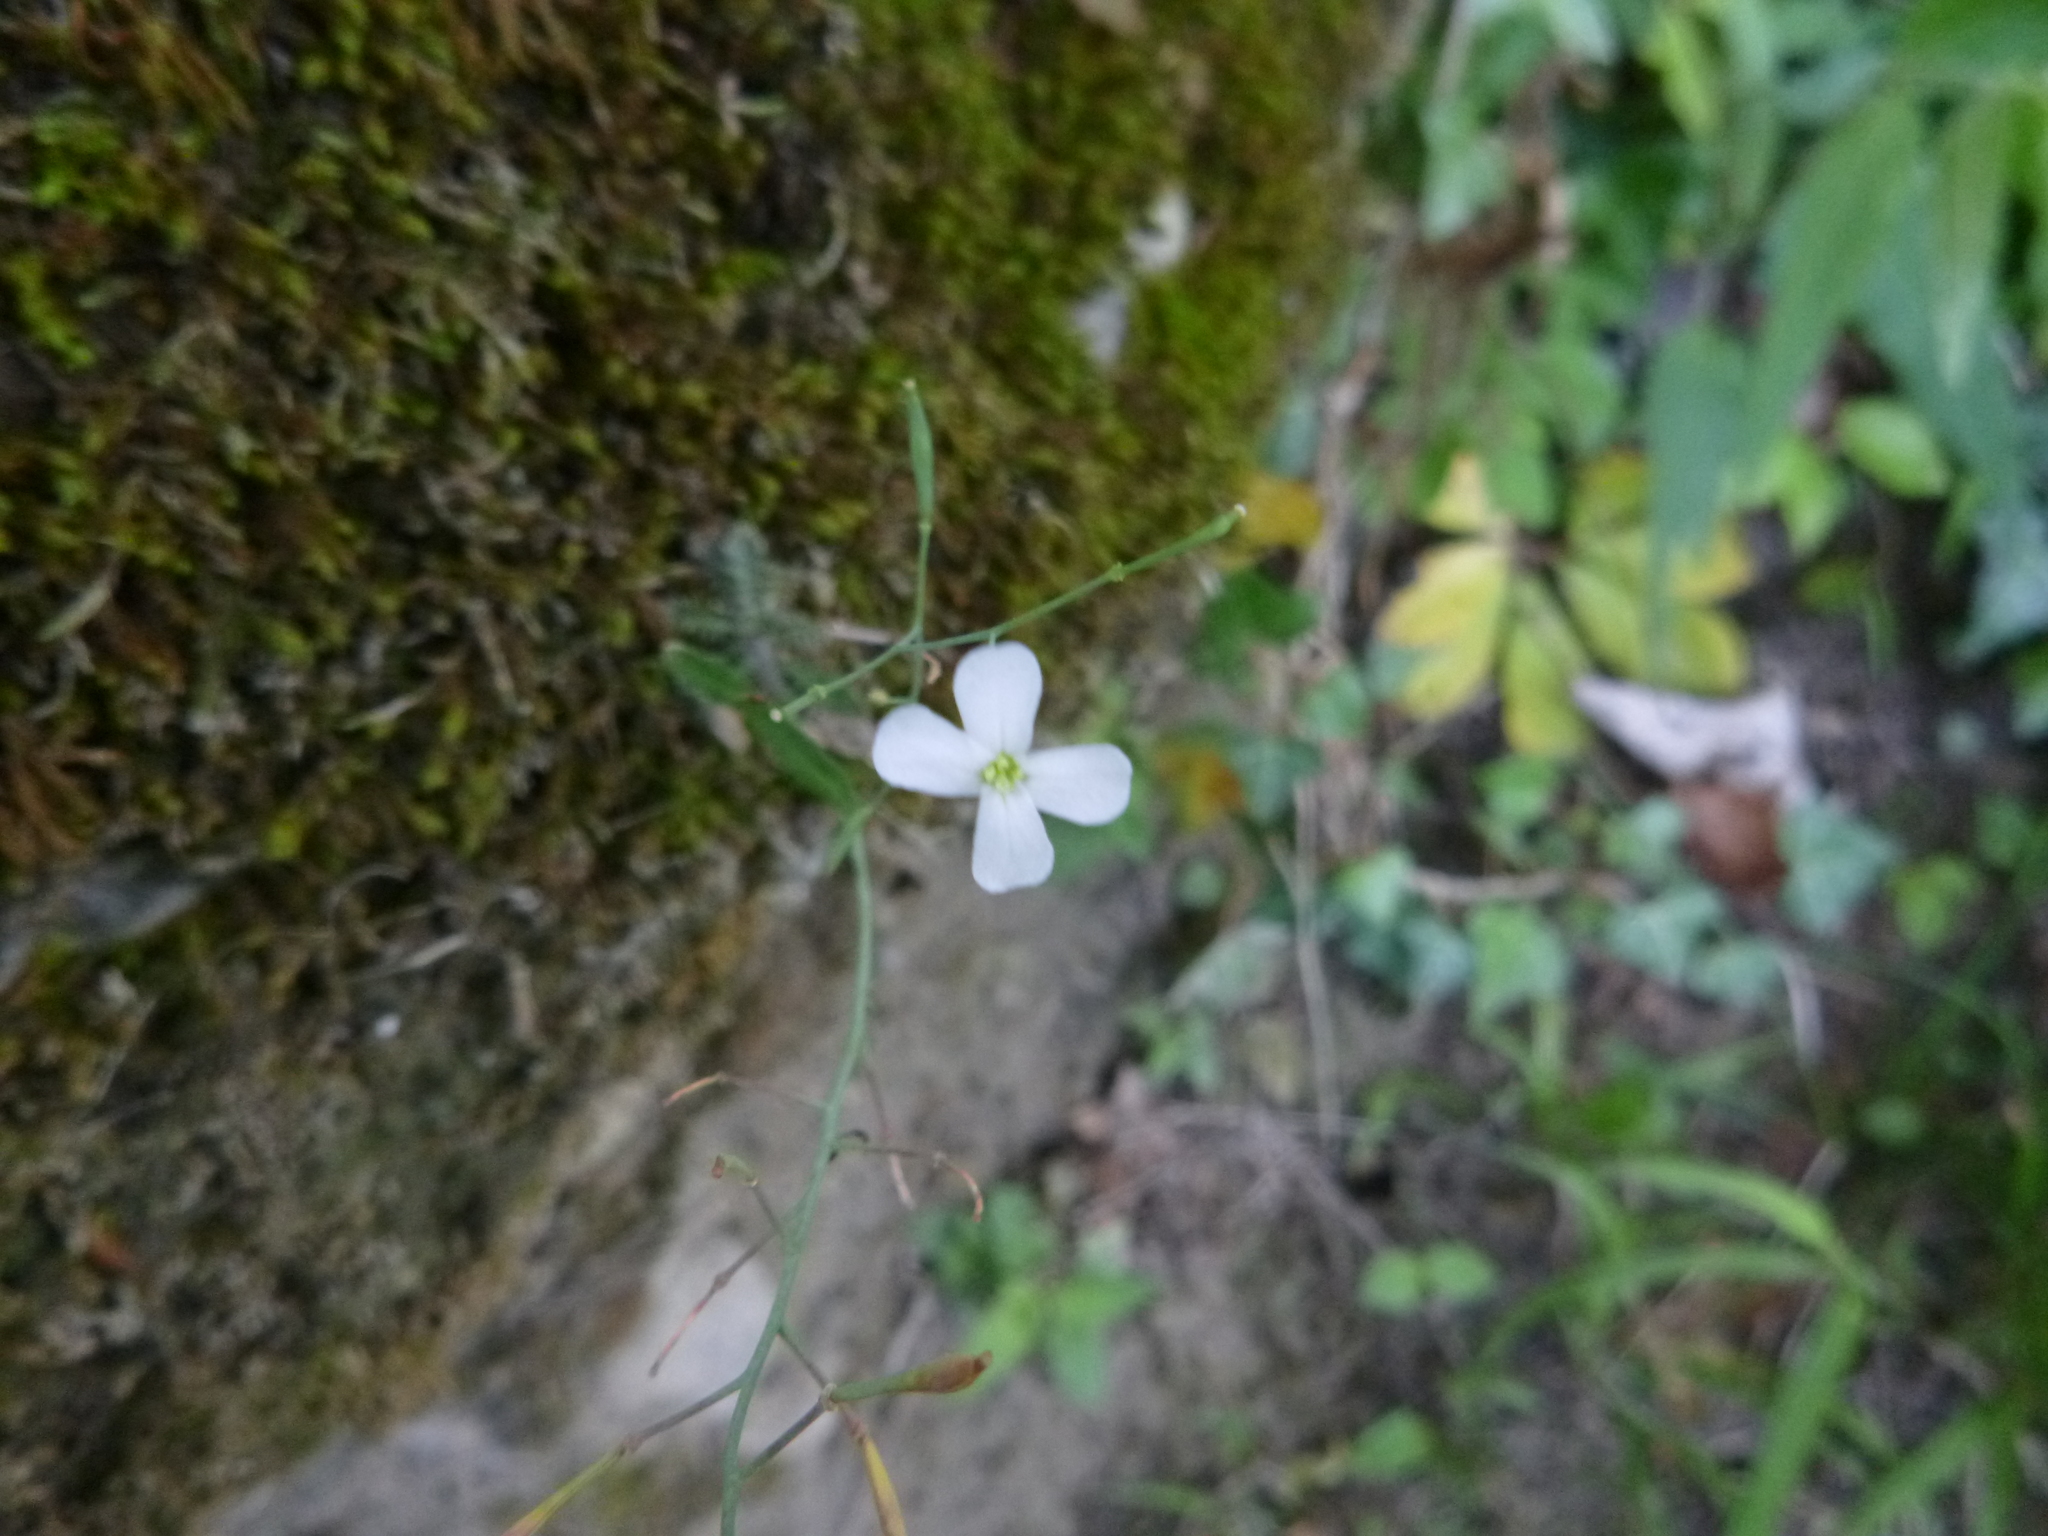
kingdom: Plantae
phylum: Tracheophyta
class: Magnoliopsida
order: Brassicales
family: Brassicaceae
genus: Arabidopsis
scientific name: Arabidopsis arenosa
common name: Sand rock-cress
